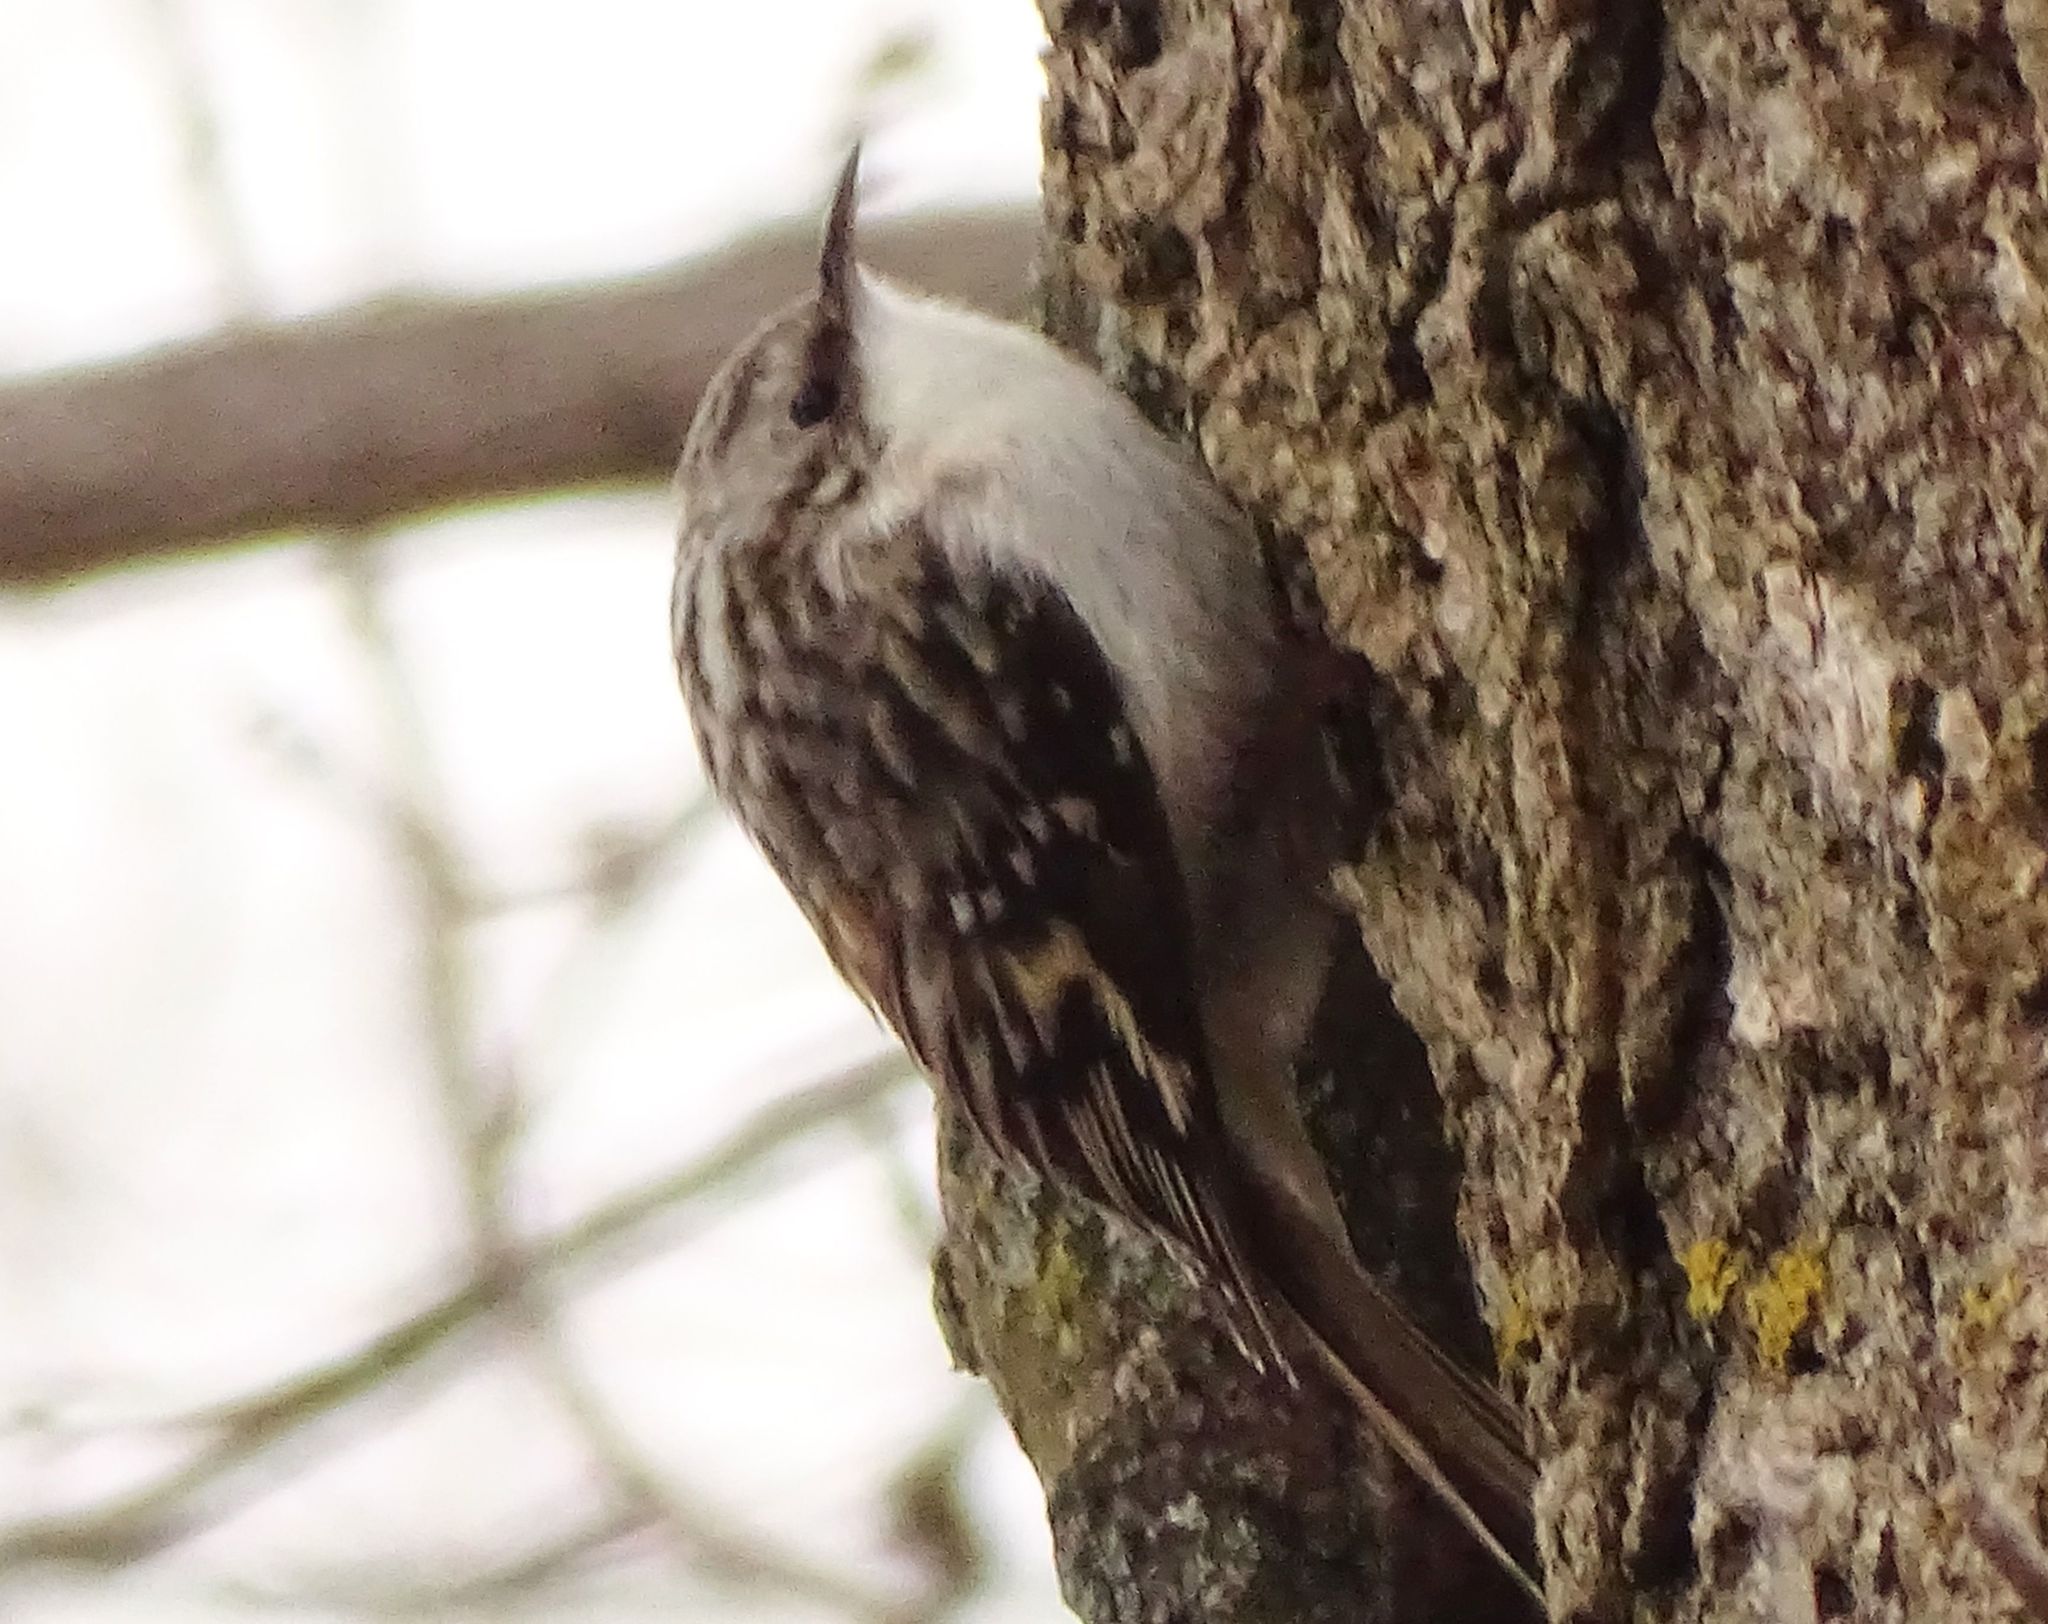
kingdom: Animalia
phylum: Chordata
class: Aves
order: Passeriformes
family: Certhiidae
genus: Certhia
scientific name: Certhia americana
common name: Brown creeper
